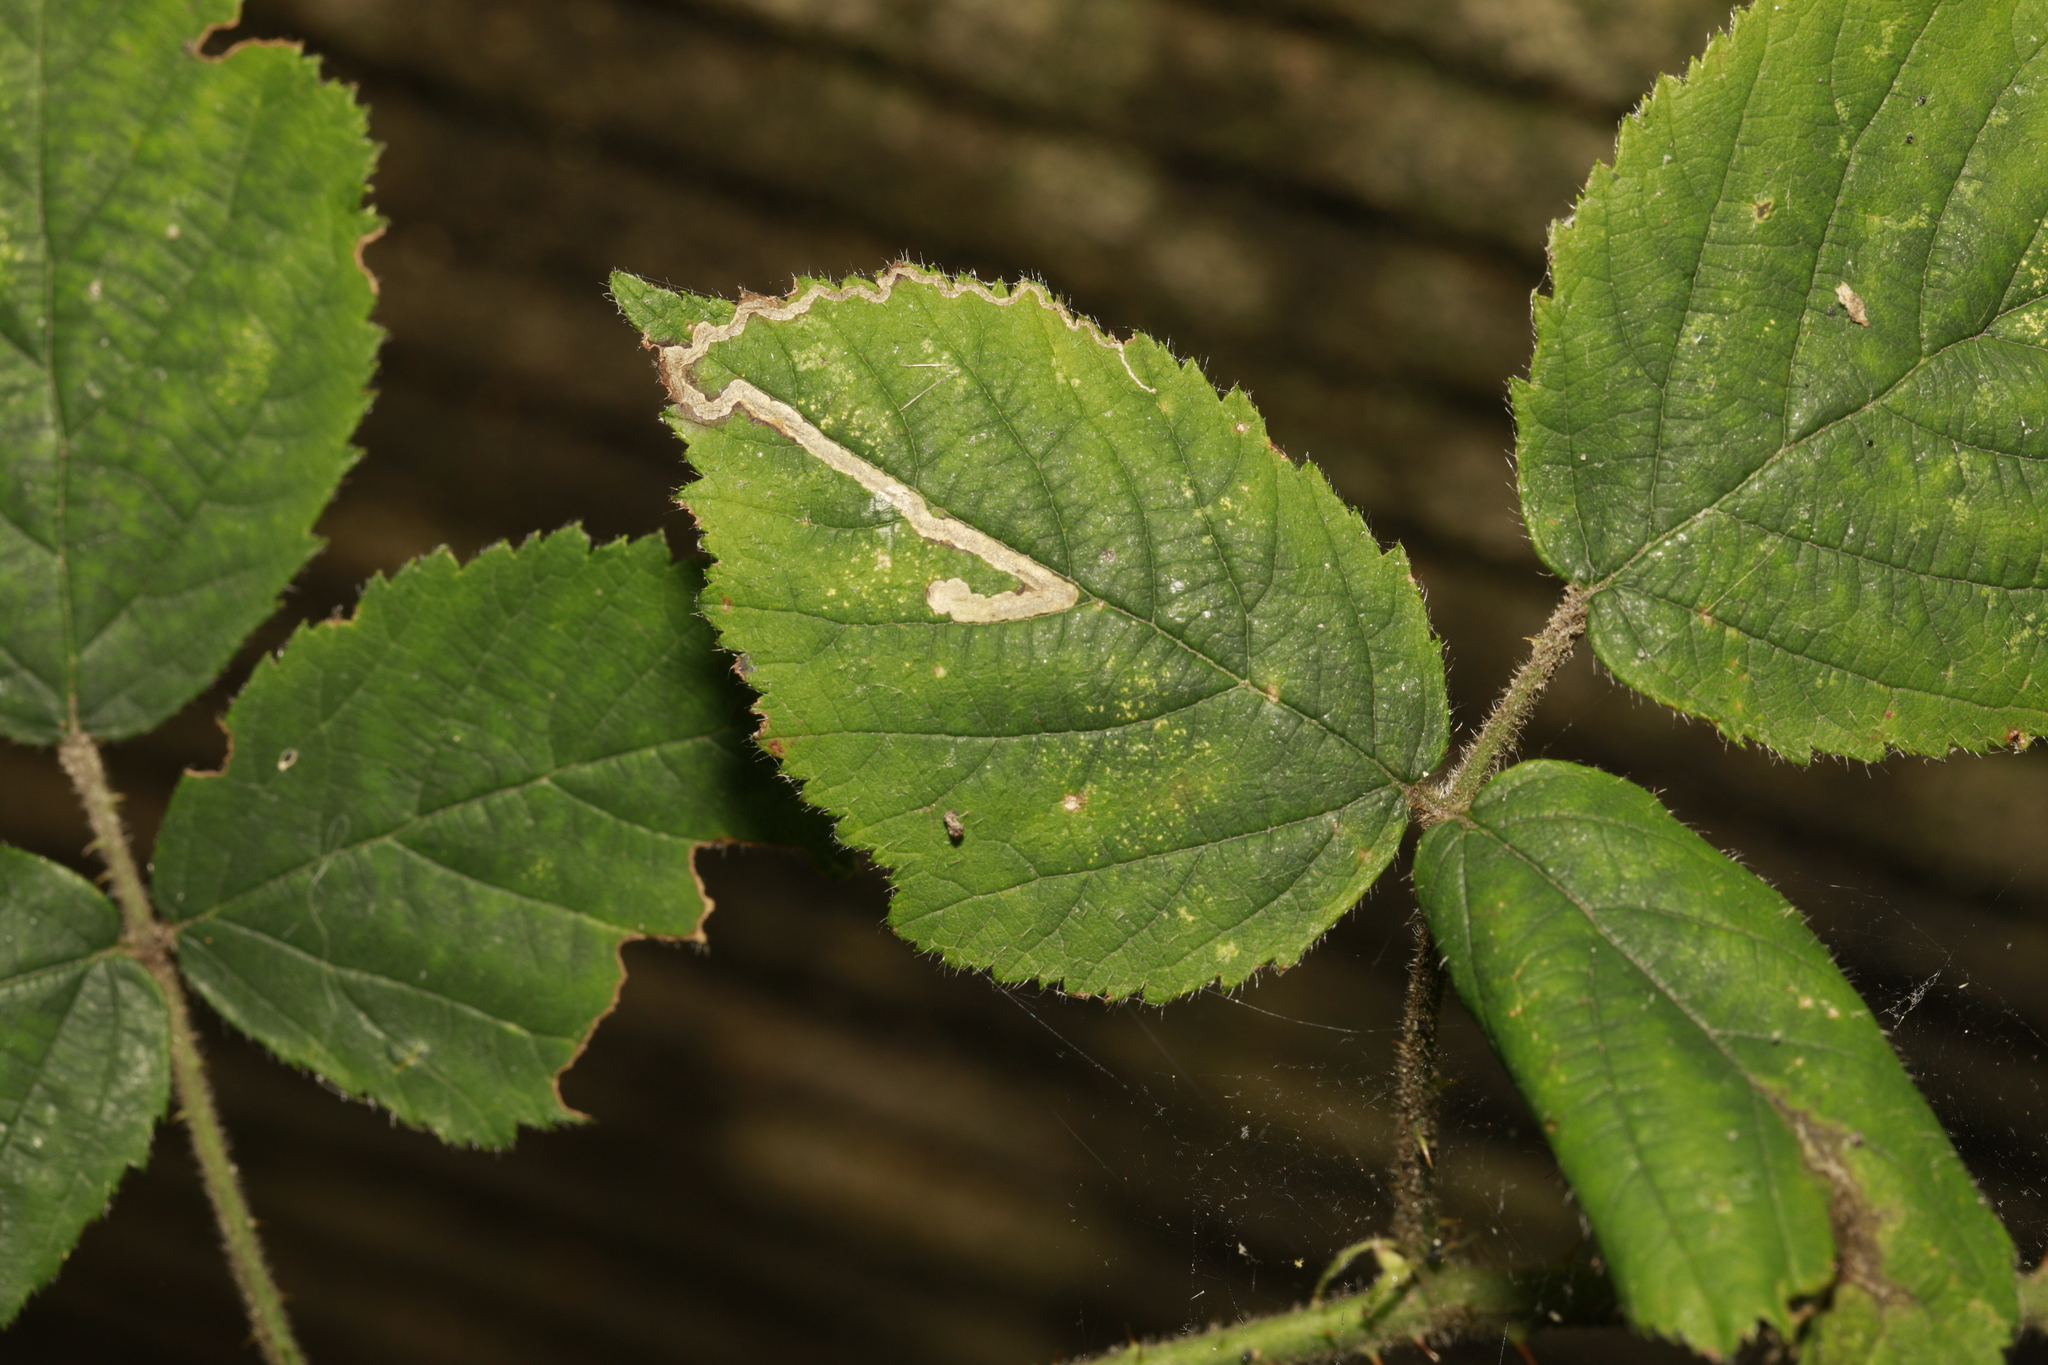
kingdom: Animalia
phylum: Arthropoda
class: Insecta
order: Lepidoptera
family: Nepticulidae
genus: Stigmella
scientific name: Stigmella aurella
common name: Golden pigmy
